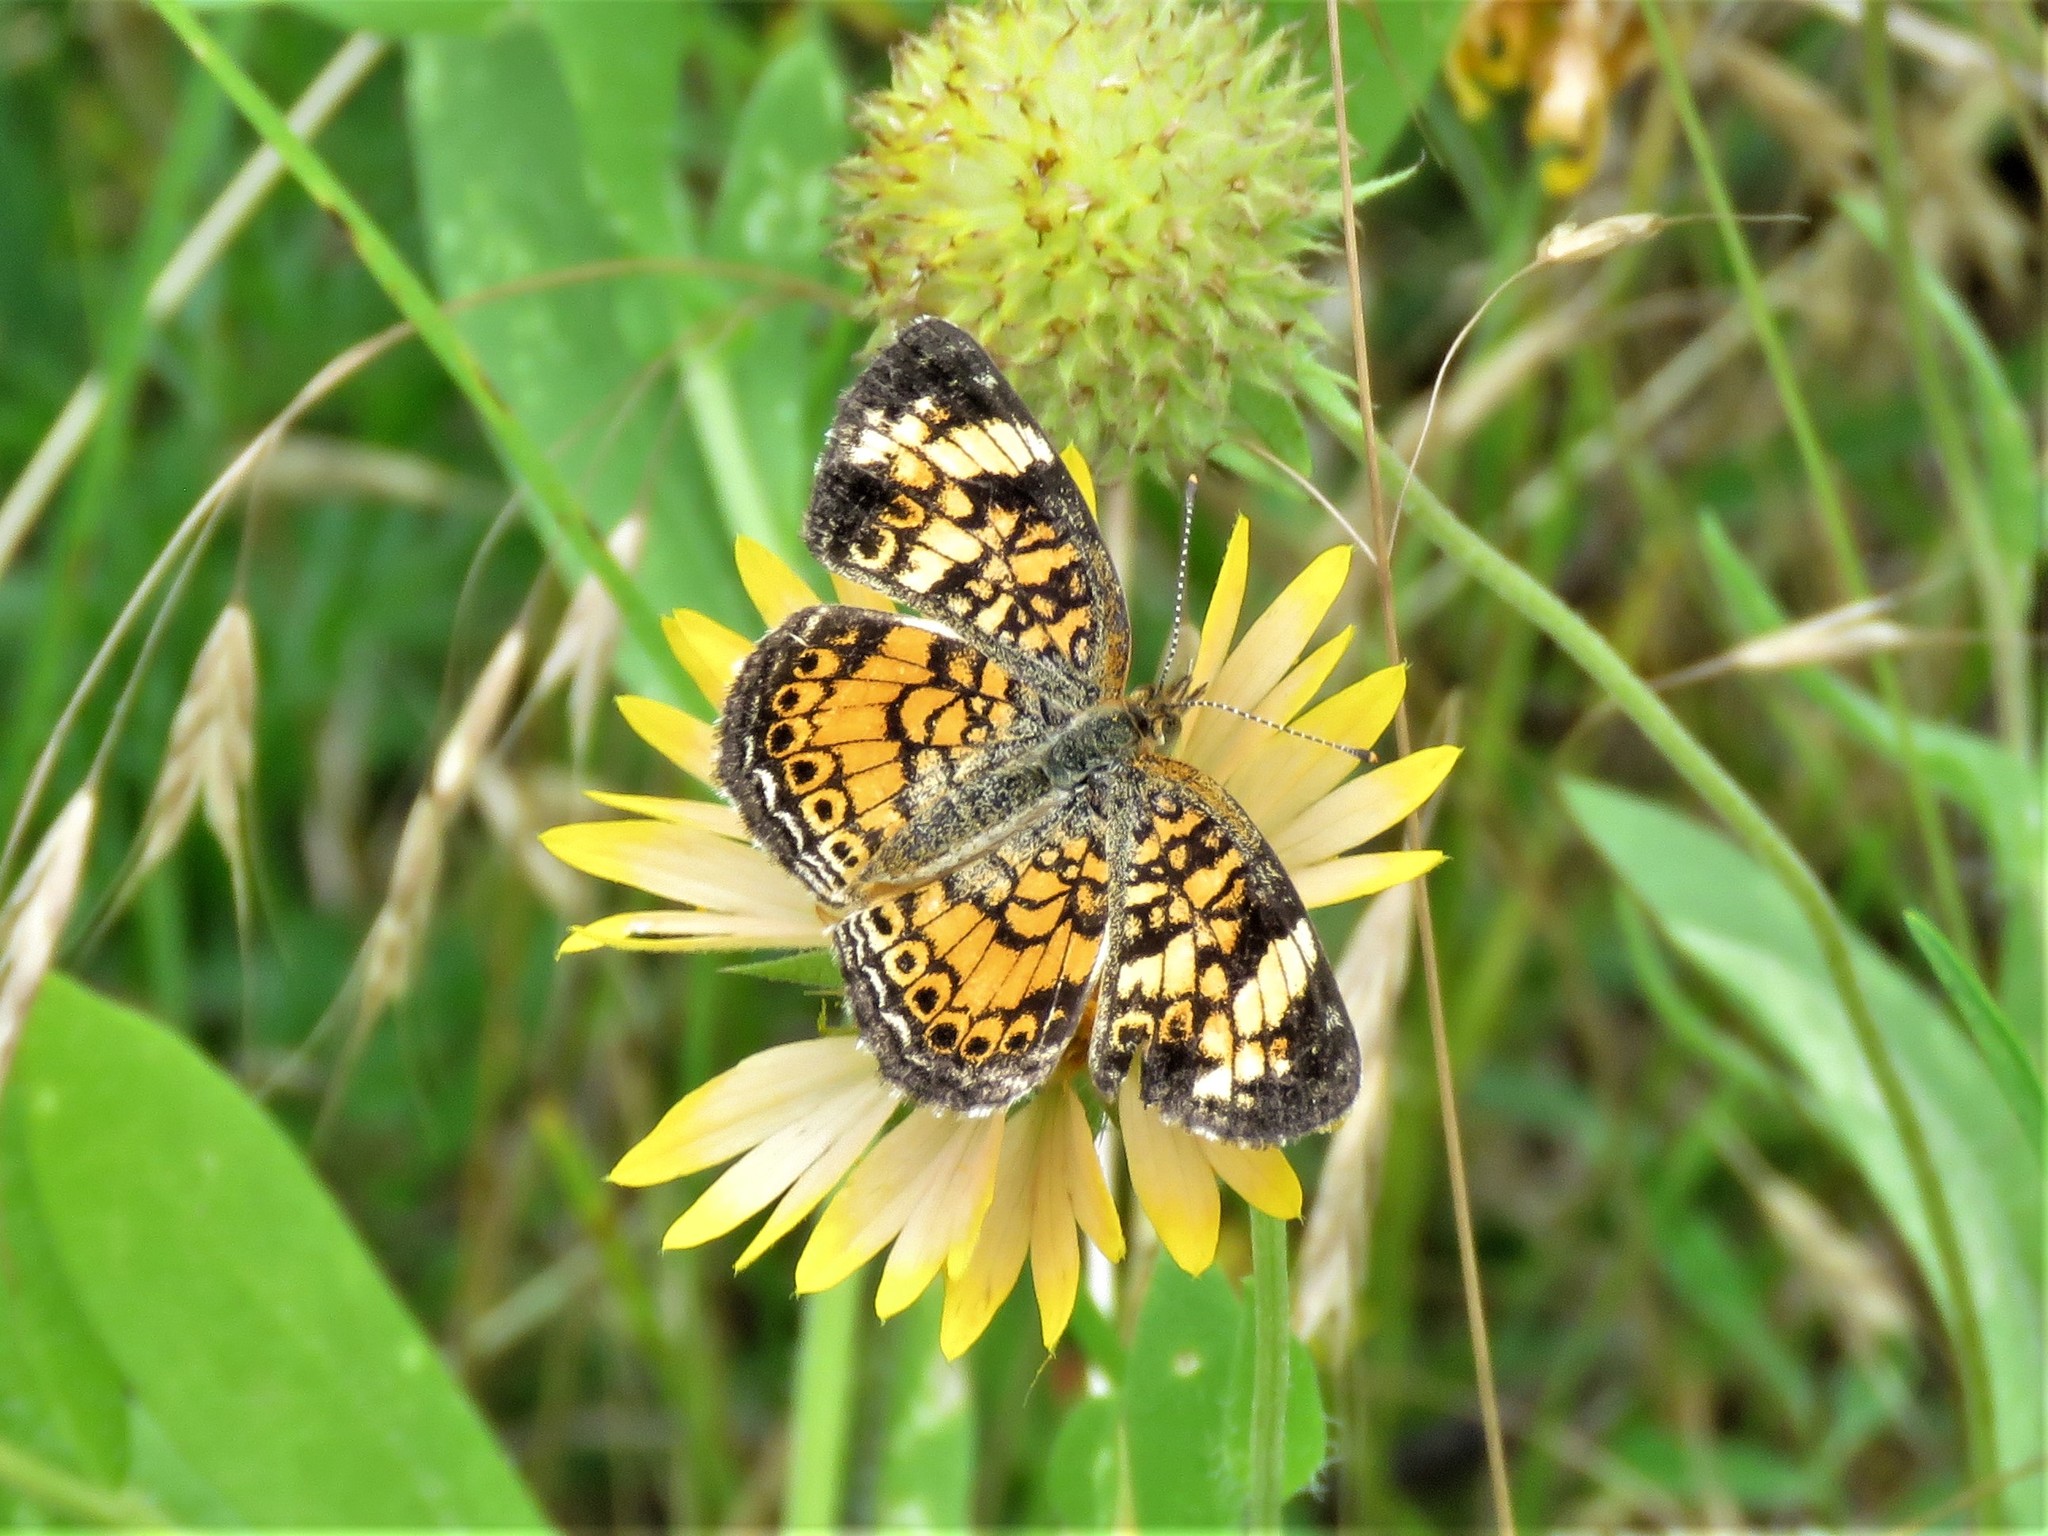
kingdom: Animalia
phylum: Arthropoda
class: Insecta
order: Lepidoptera
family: Nymphalidae
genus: Phyciodes
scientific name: Phyciodes tharos
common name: Pearl crescent
